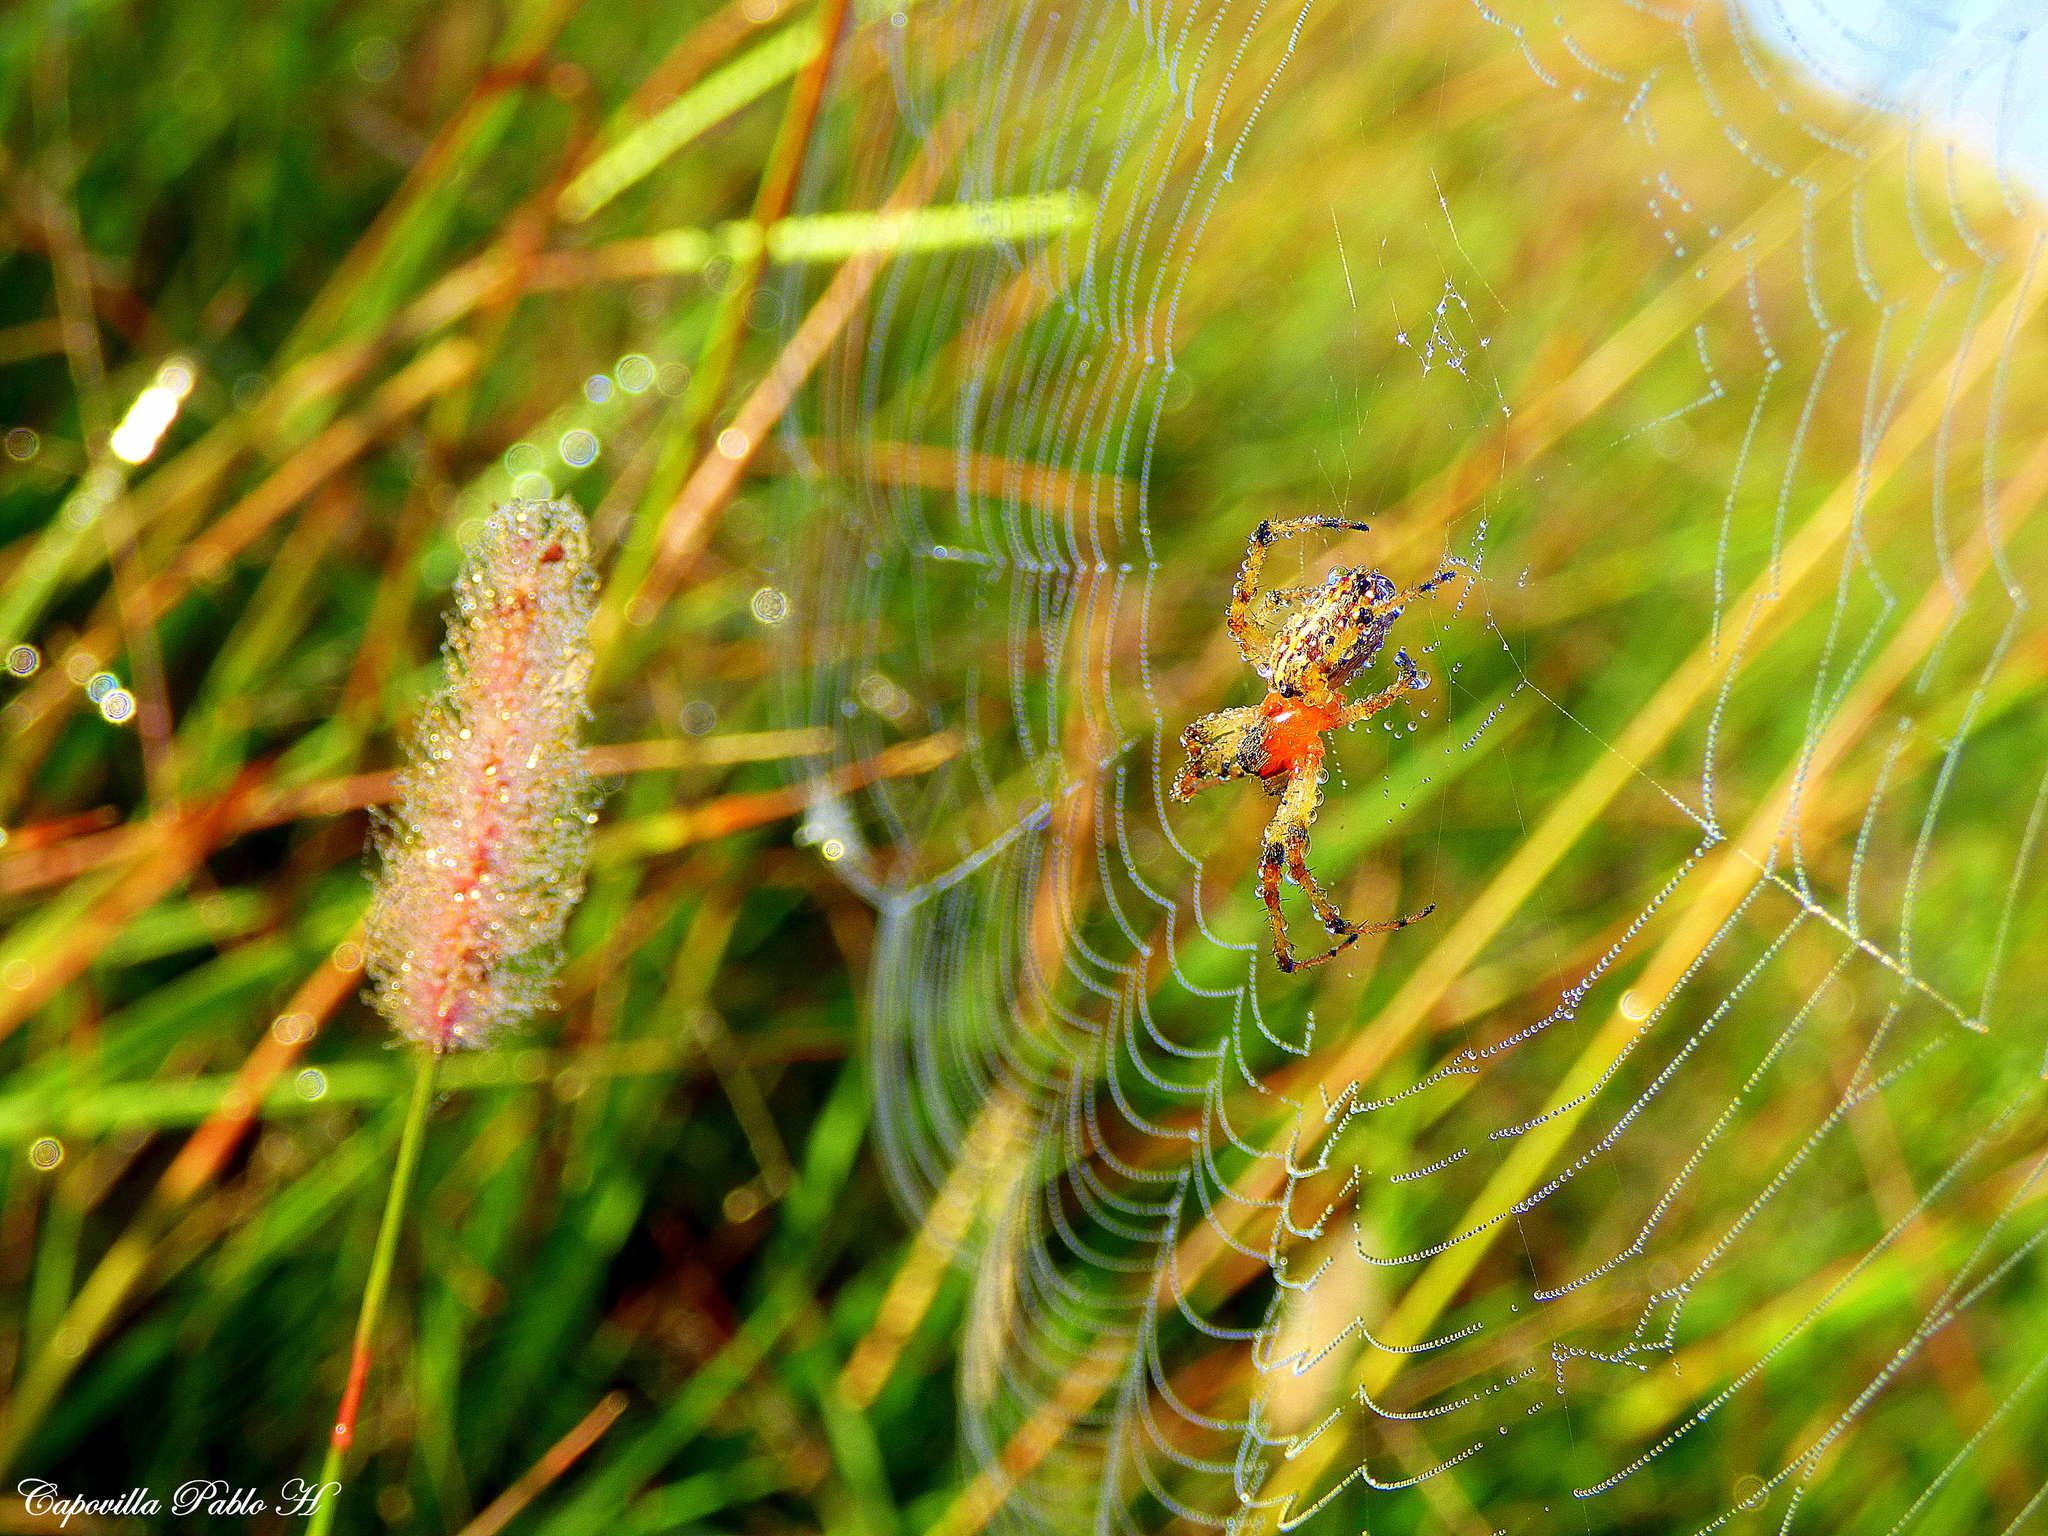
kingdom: Animalia
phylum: Arthropoda
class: Arachnida
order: Araneae
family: Araneidae
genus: Alpaida
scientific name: Alpaida veniliae
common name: Orb weavers
